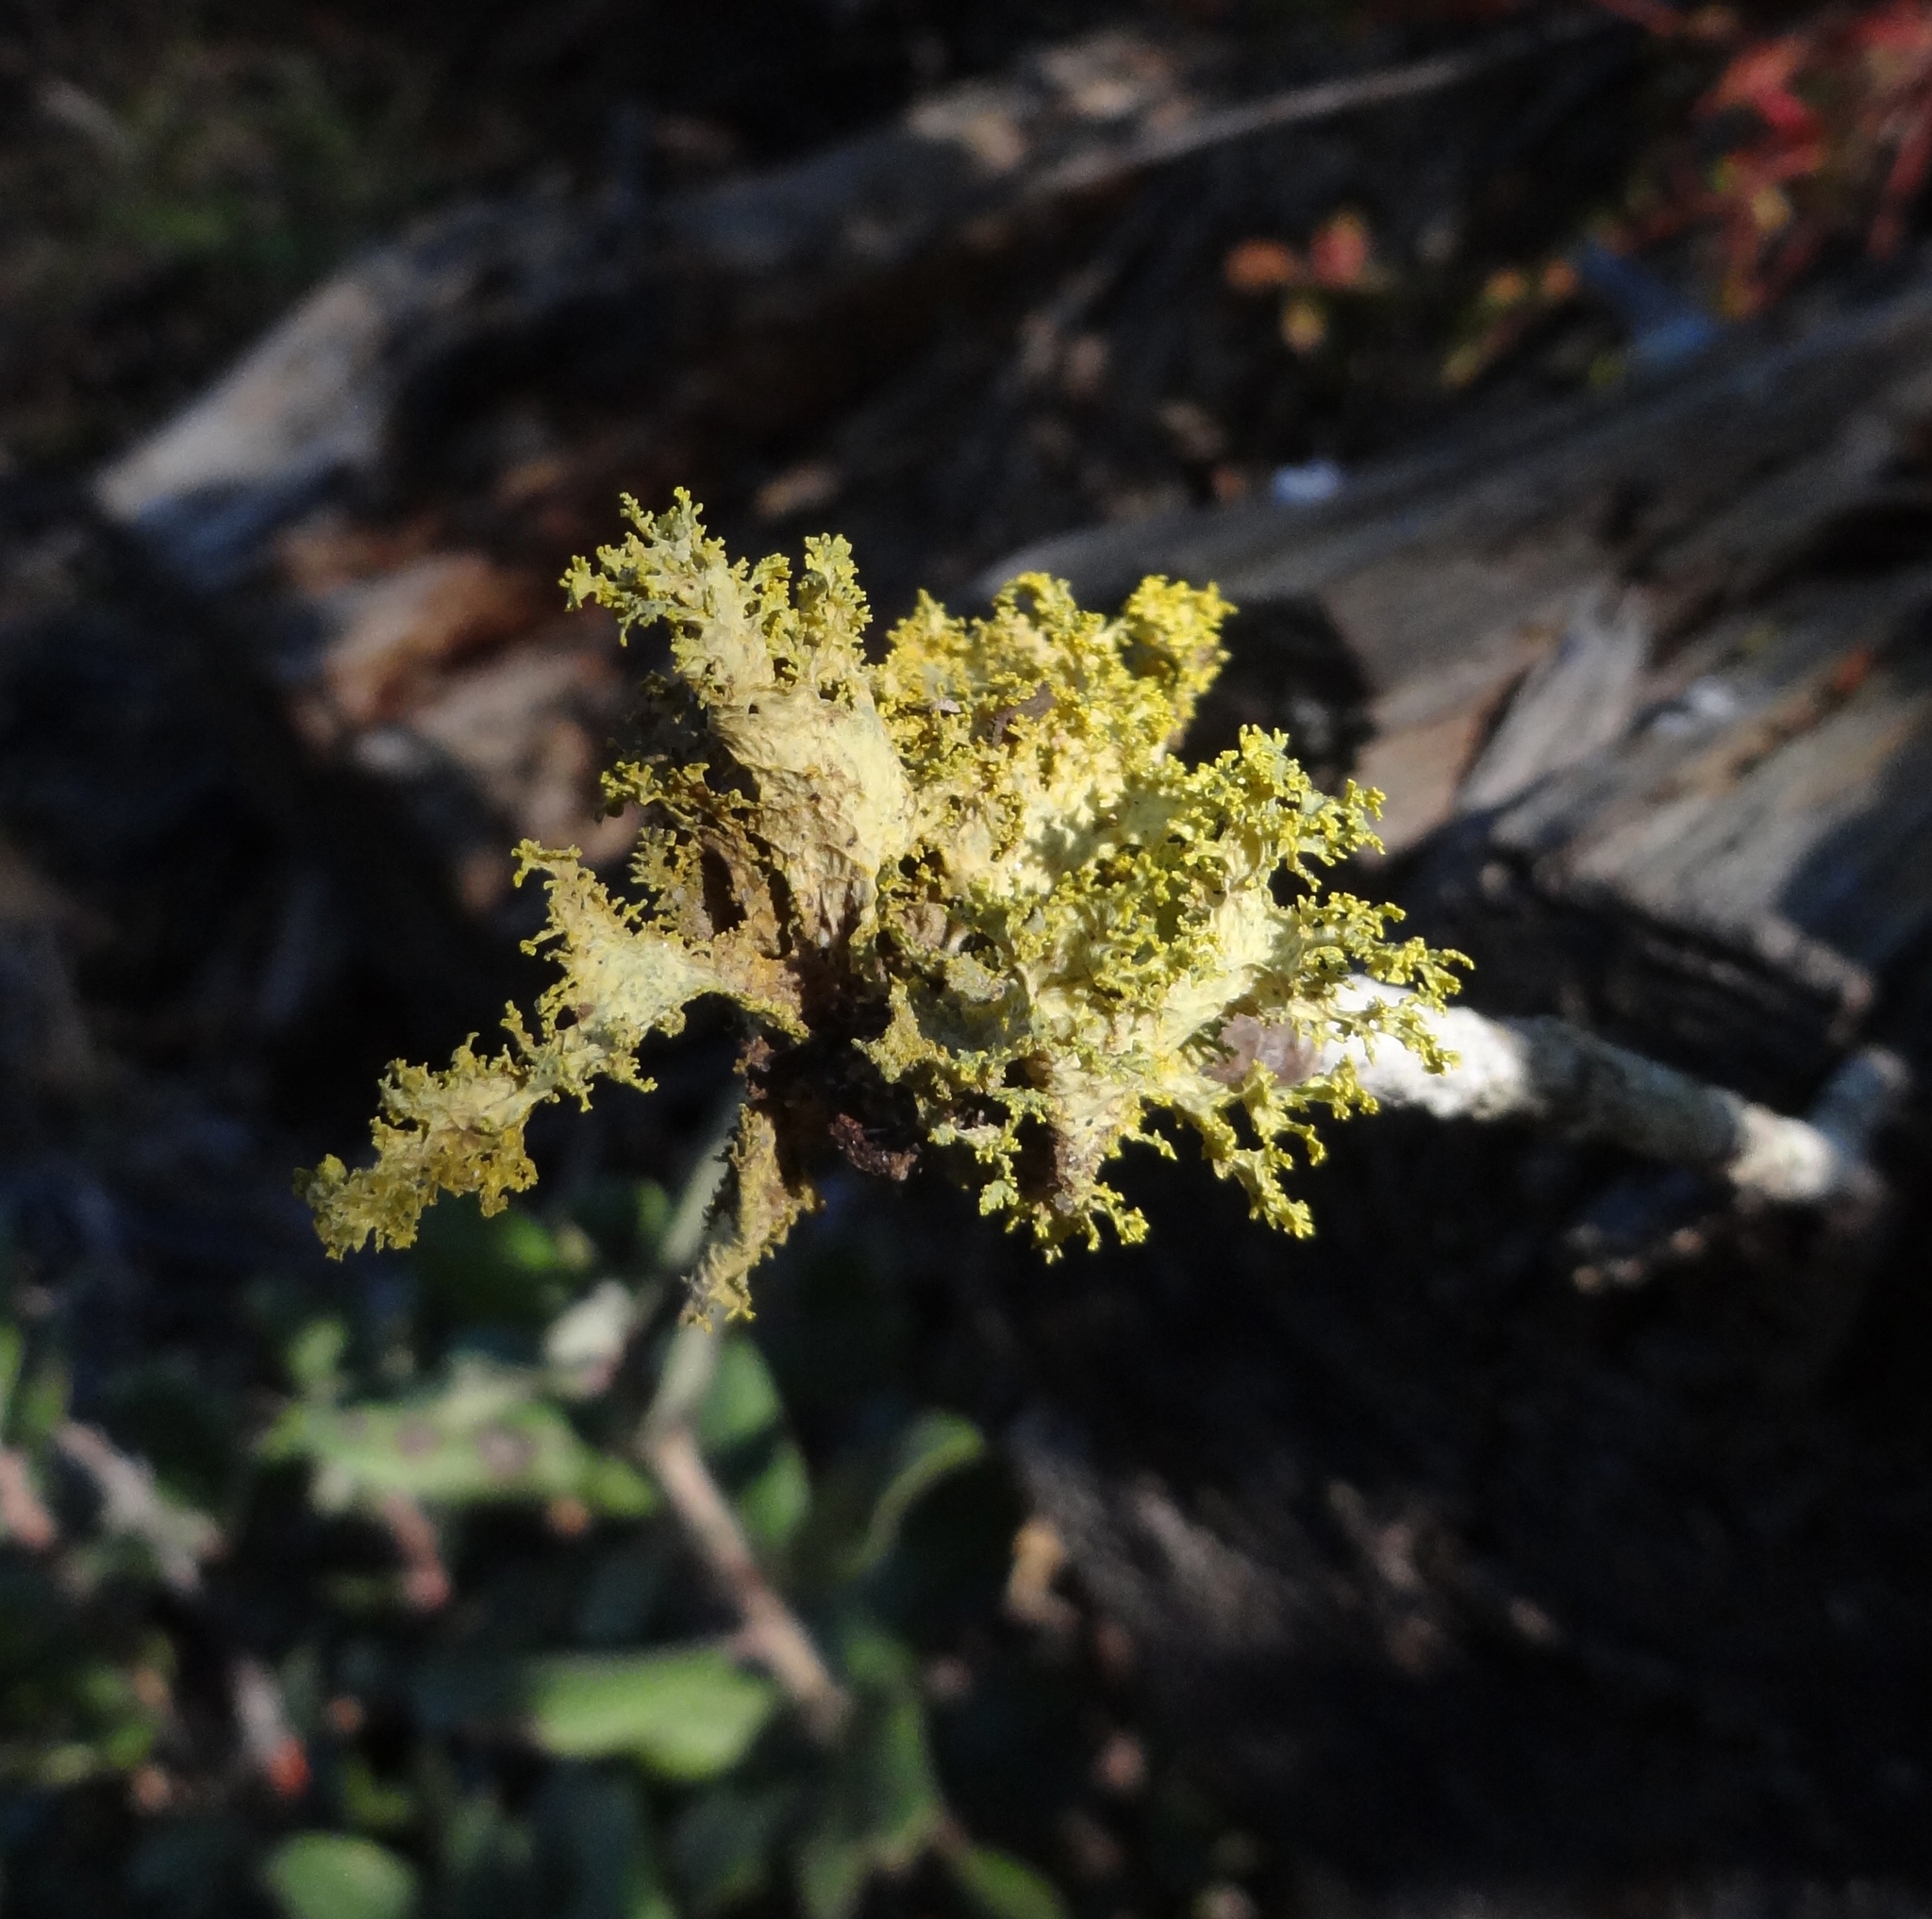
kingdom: Fungi
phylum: Ascomycota
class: Lecanoromycetes
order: Lecanorales
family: Parmeliaceae
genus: Vulpicida
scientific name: Vulpicida canadensis
